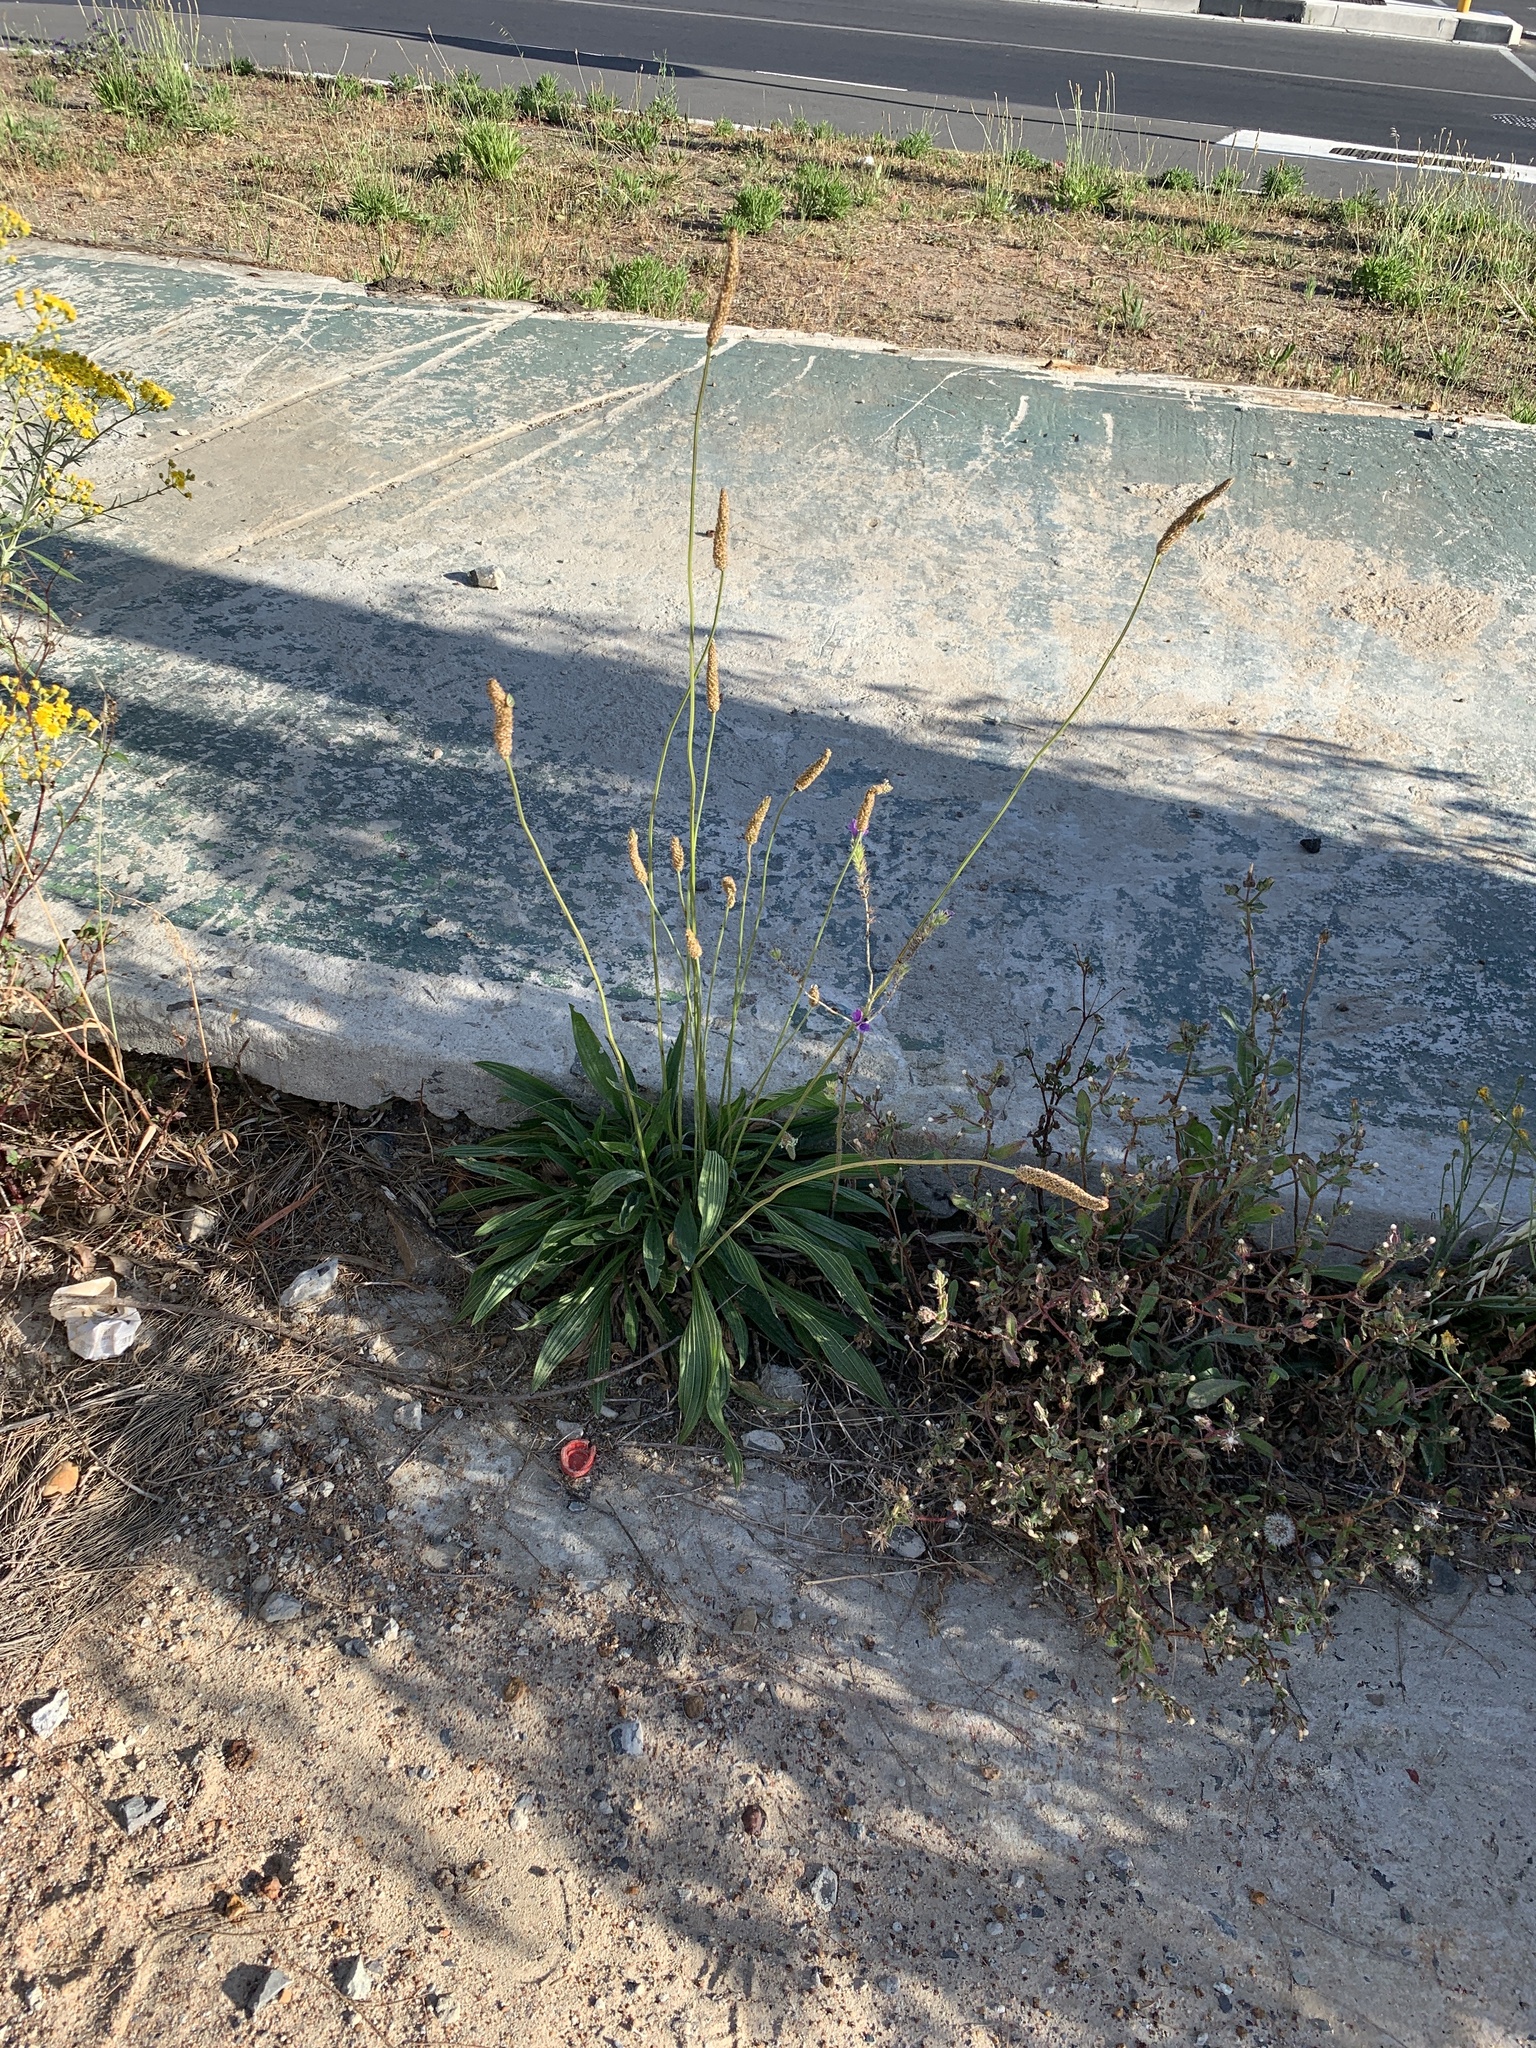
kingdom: Plantae
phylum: Tracheophyta
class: Magnoliopsida
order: Lamiales
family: Plantaginaceae
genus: Plantago
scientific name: Plantago lanceolata
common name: Ribwort plantain
